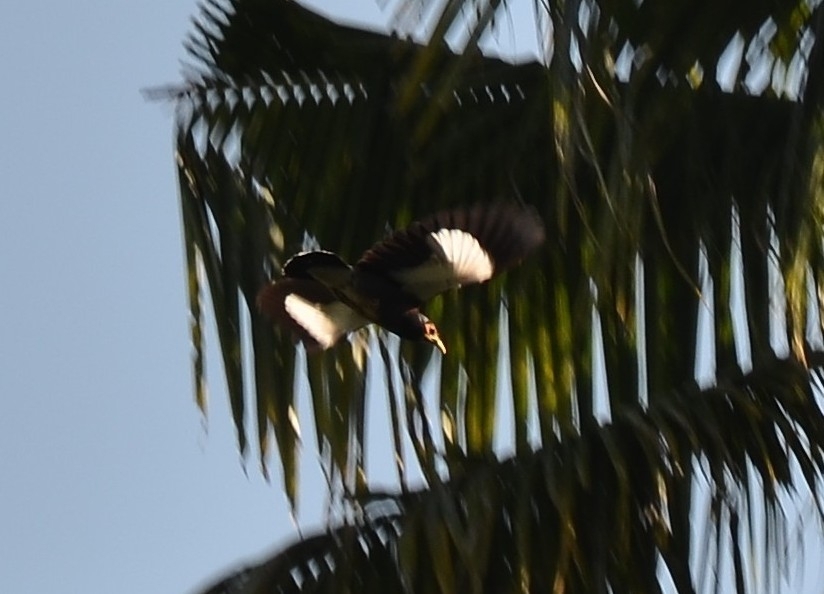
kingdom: Animalia
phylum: Chordata
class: Aves
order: Passeriformes
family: Sturnidae
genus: Acridotheres
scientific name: Acridotheres tristis
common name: Common myna
